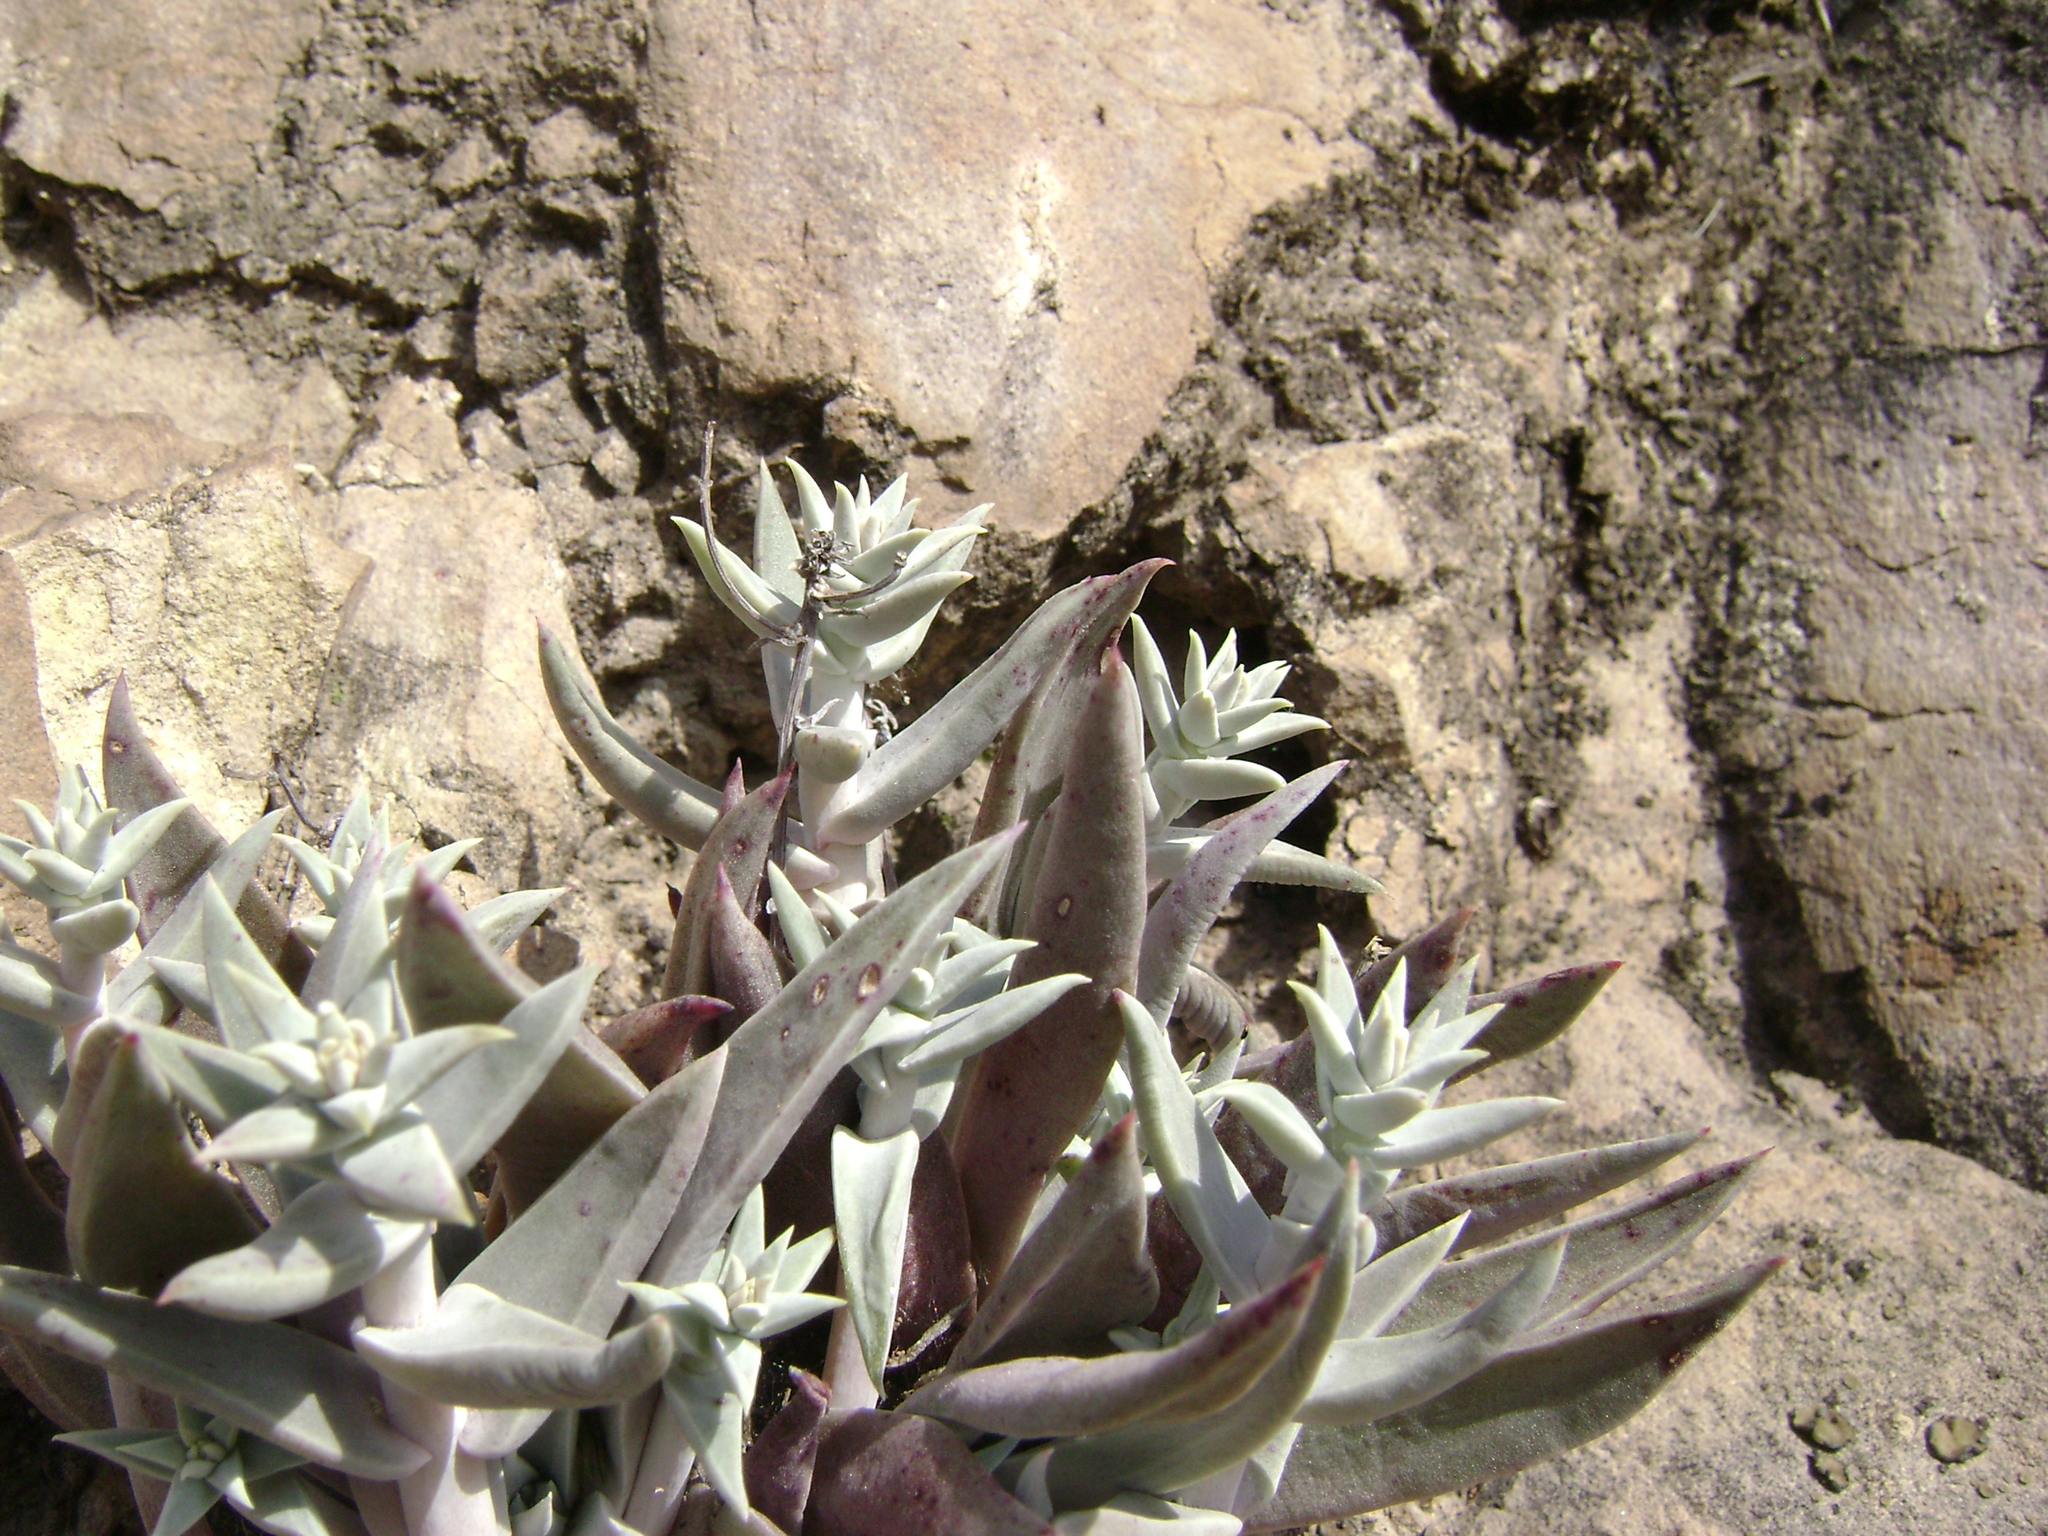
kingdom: Plantae
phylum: Tracheophyta
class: Magnoliopsida
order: Saxifragales
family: Crassulaceae
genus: Dudleya
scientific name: Dudleya verityi
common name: Verity dudleya
